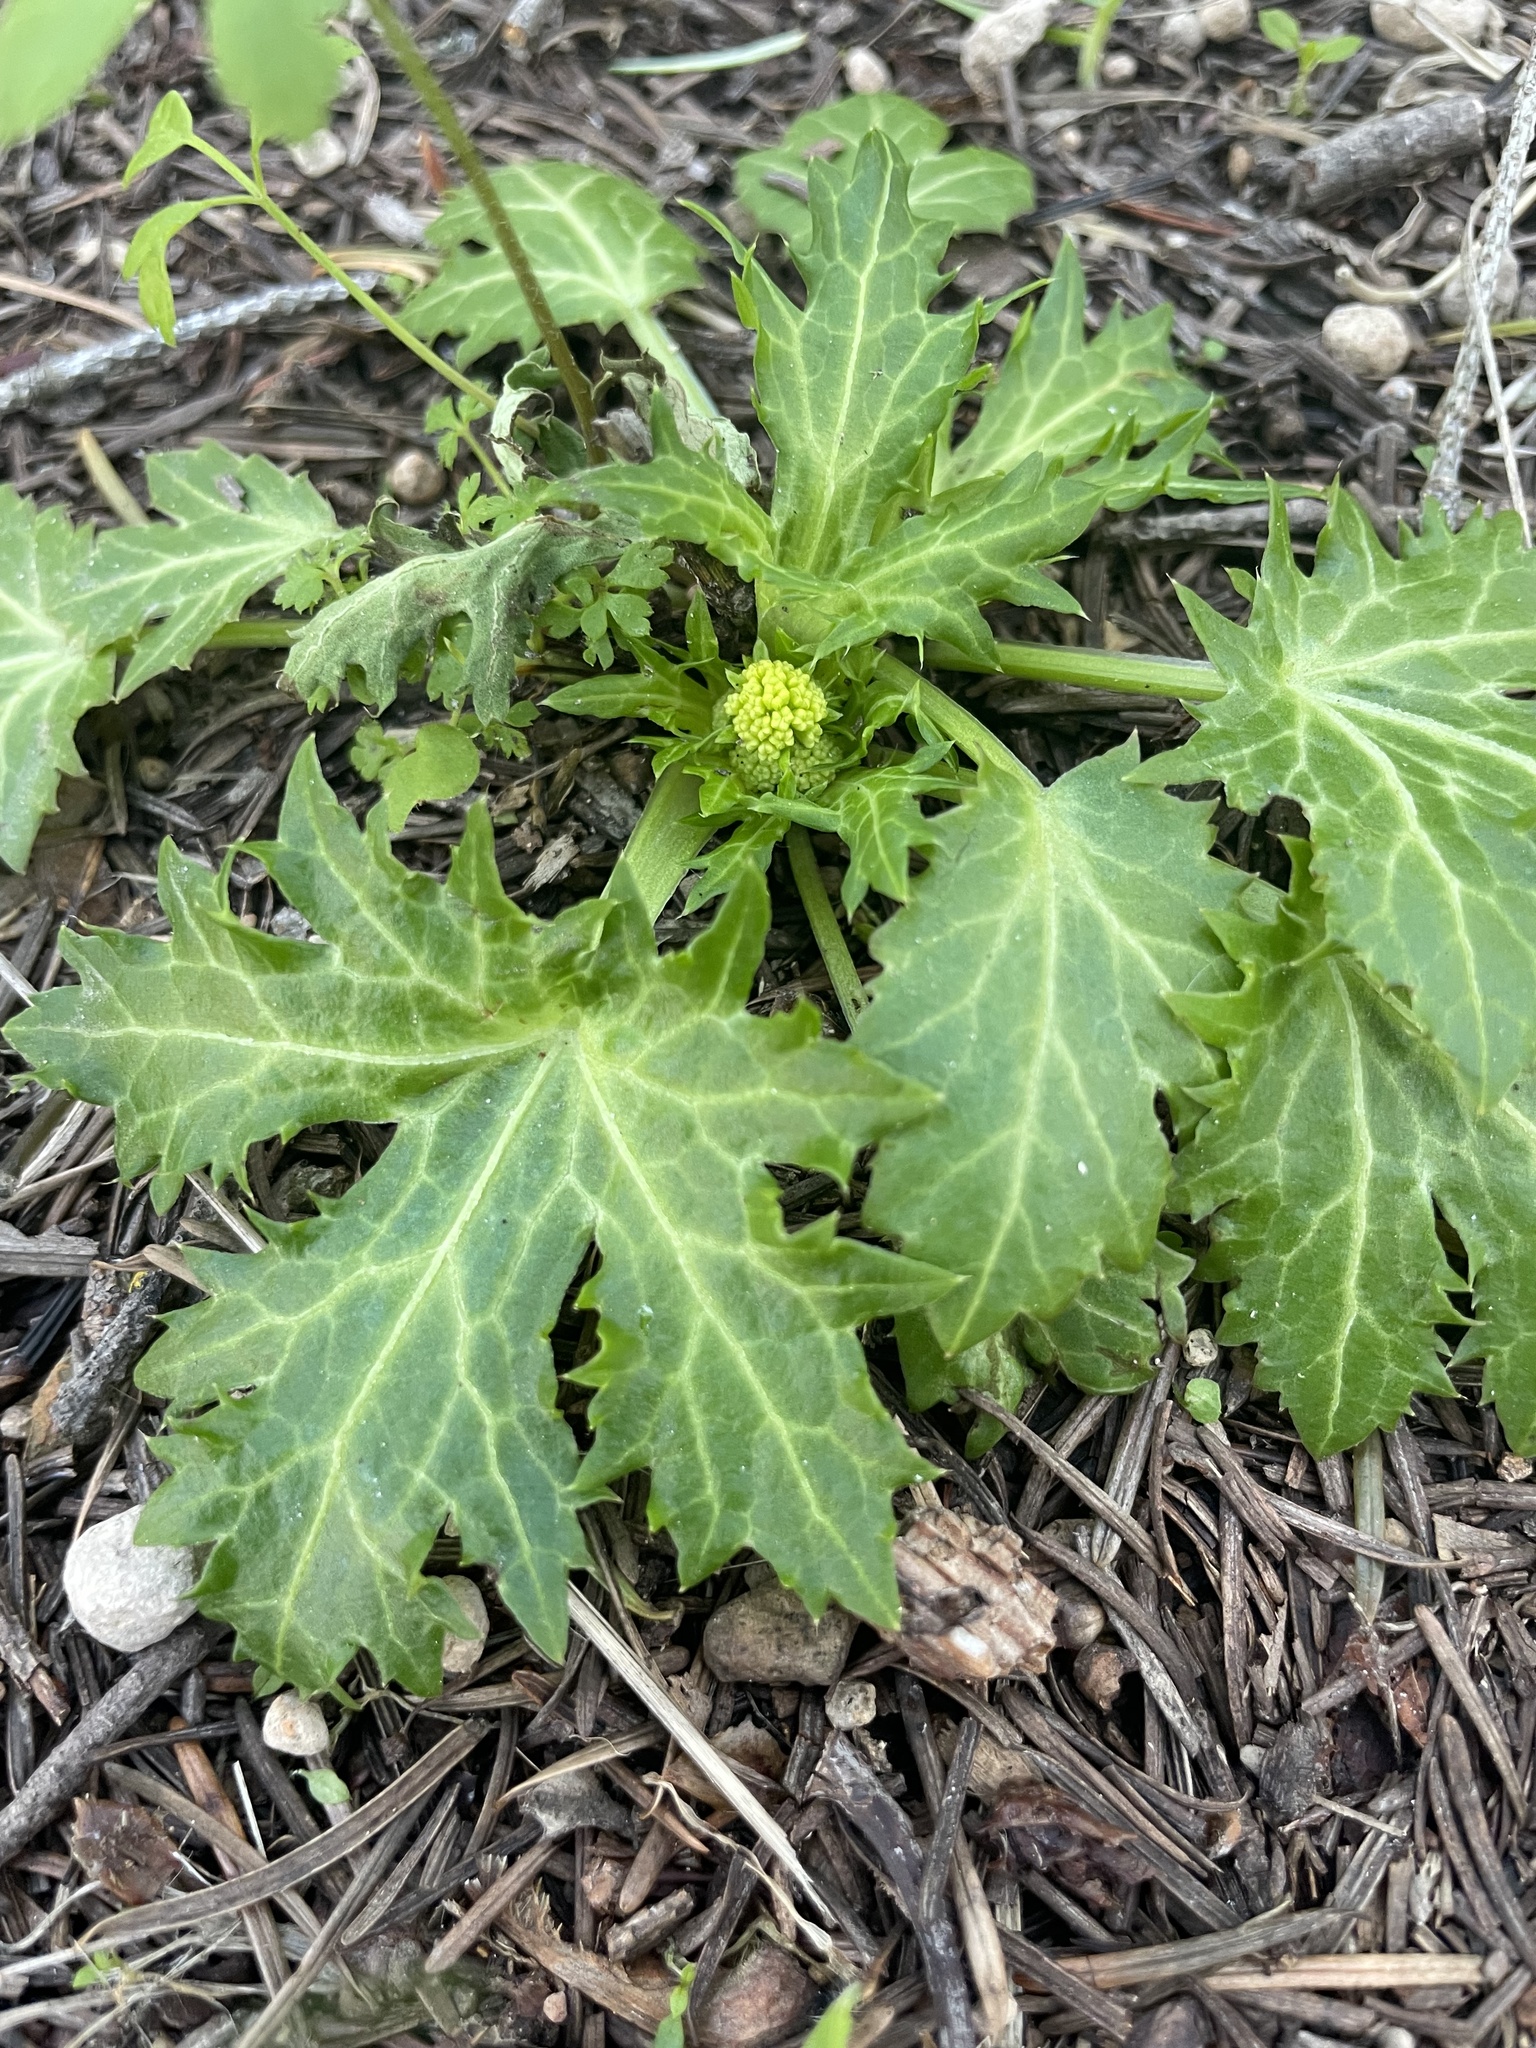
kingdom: Plantae
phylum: Tracheophyta
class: Magnoliopsida
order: Apiales
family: Apiaceae
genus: Sanicula
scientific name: Sanicula crassicaulis
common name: Western snakeroot
